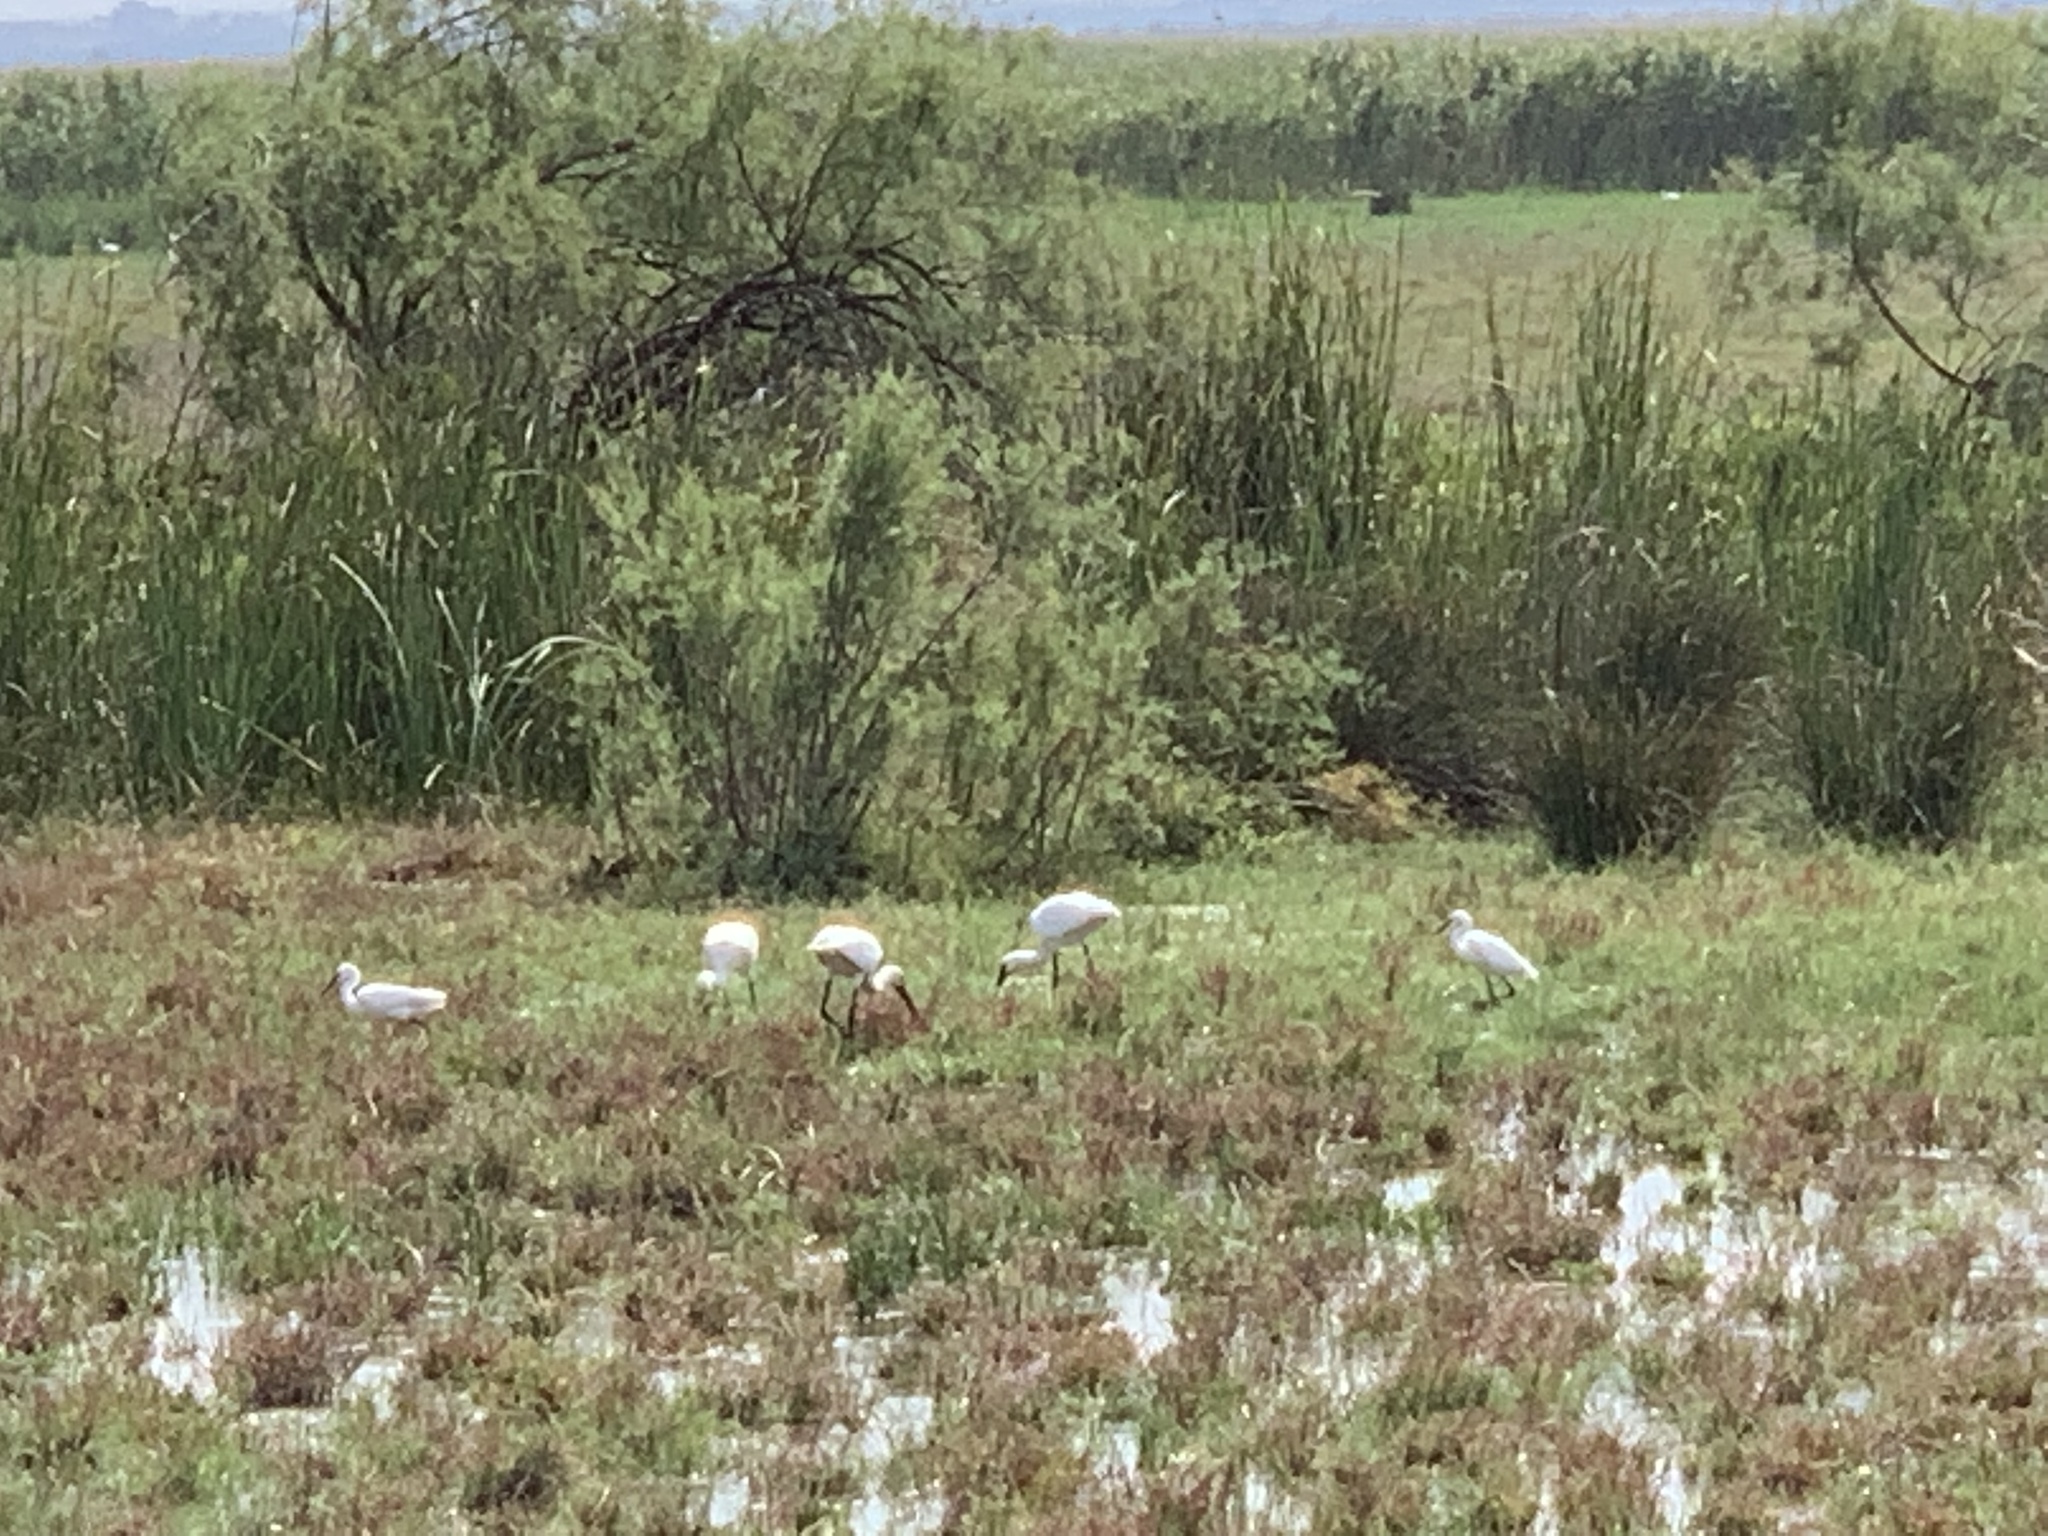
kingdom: Animalia
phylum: Chordata
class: Aves
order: Pelecaniformes
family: Threskiornithidae
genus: Platalea
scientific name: Platalea leucorodia
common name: Eurasian spoonbill
